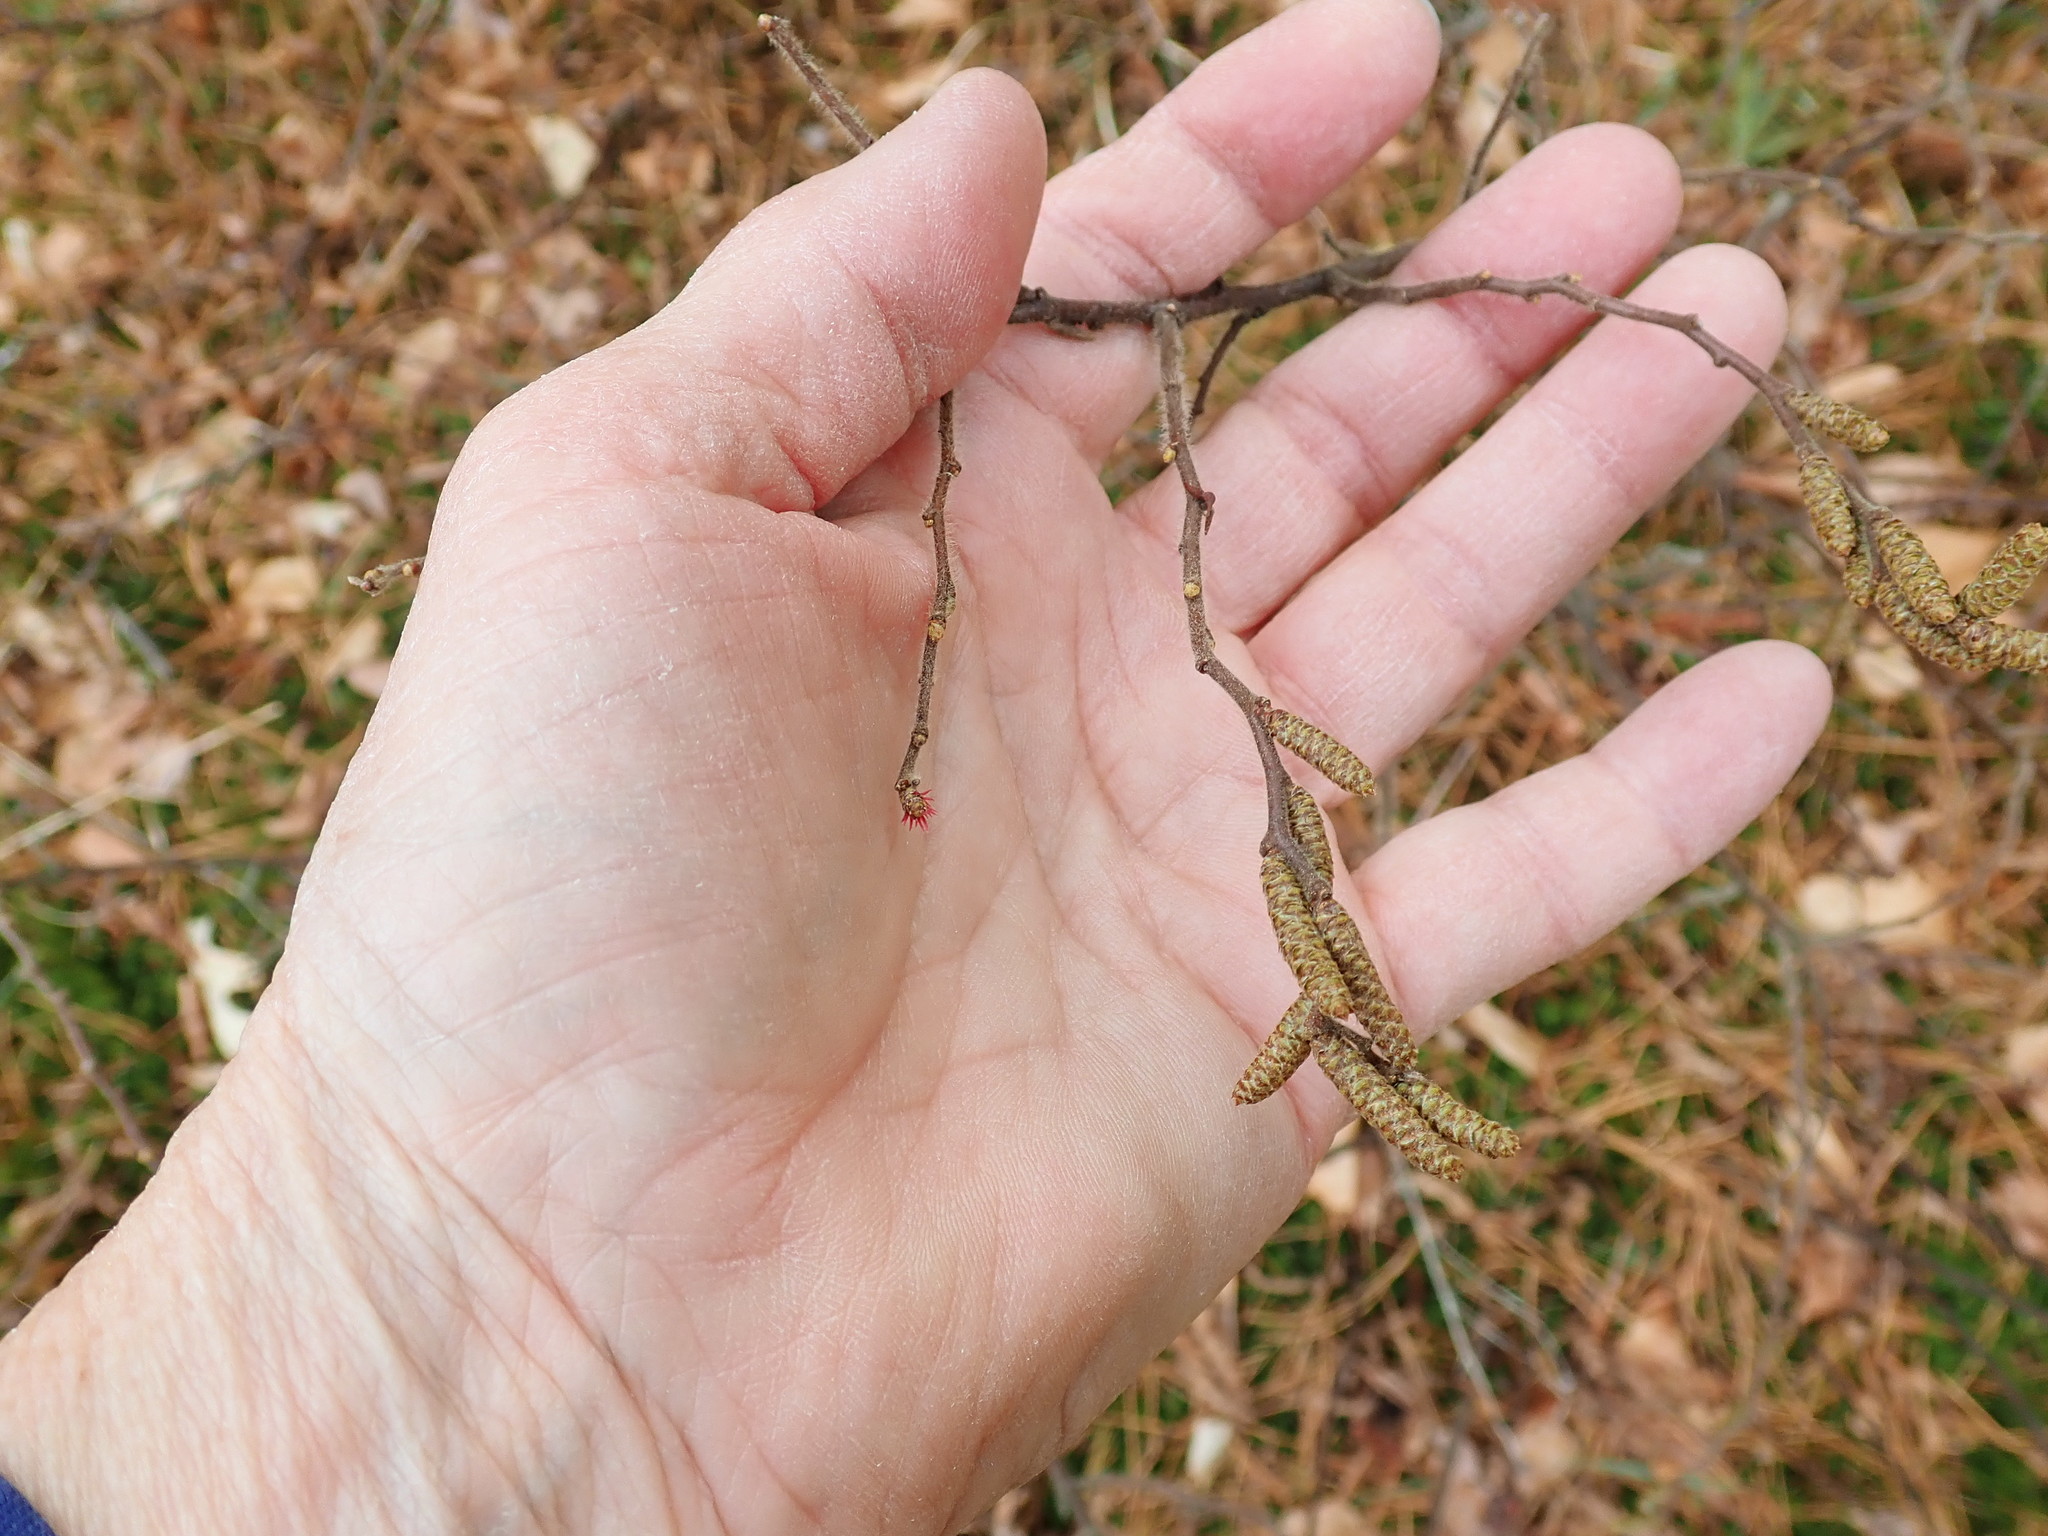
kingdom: Plantae
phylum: Tracheophyta
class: Magnoliopsida
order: Fagales
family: Myricaceae
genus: Comptonia
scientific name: Comptonia peregrina
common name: Sweet-fern
